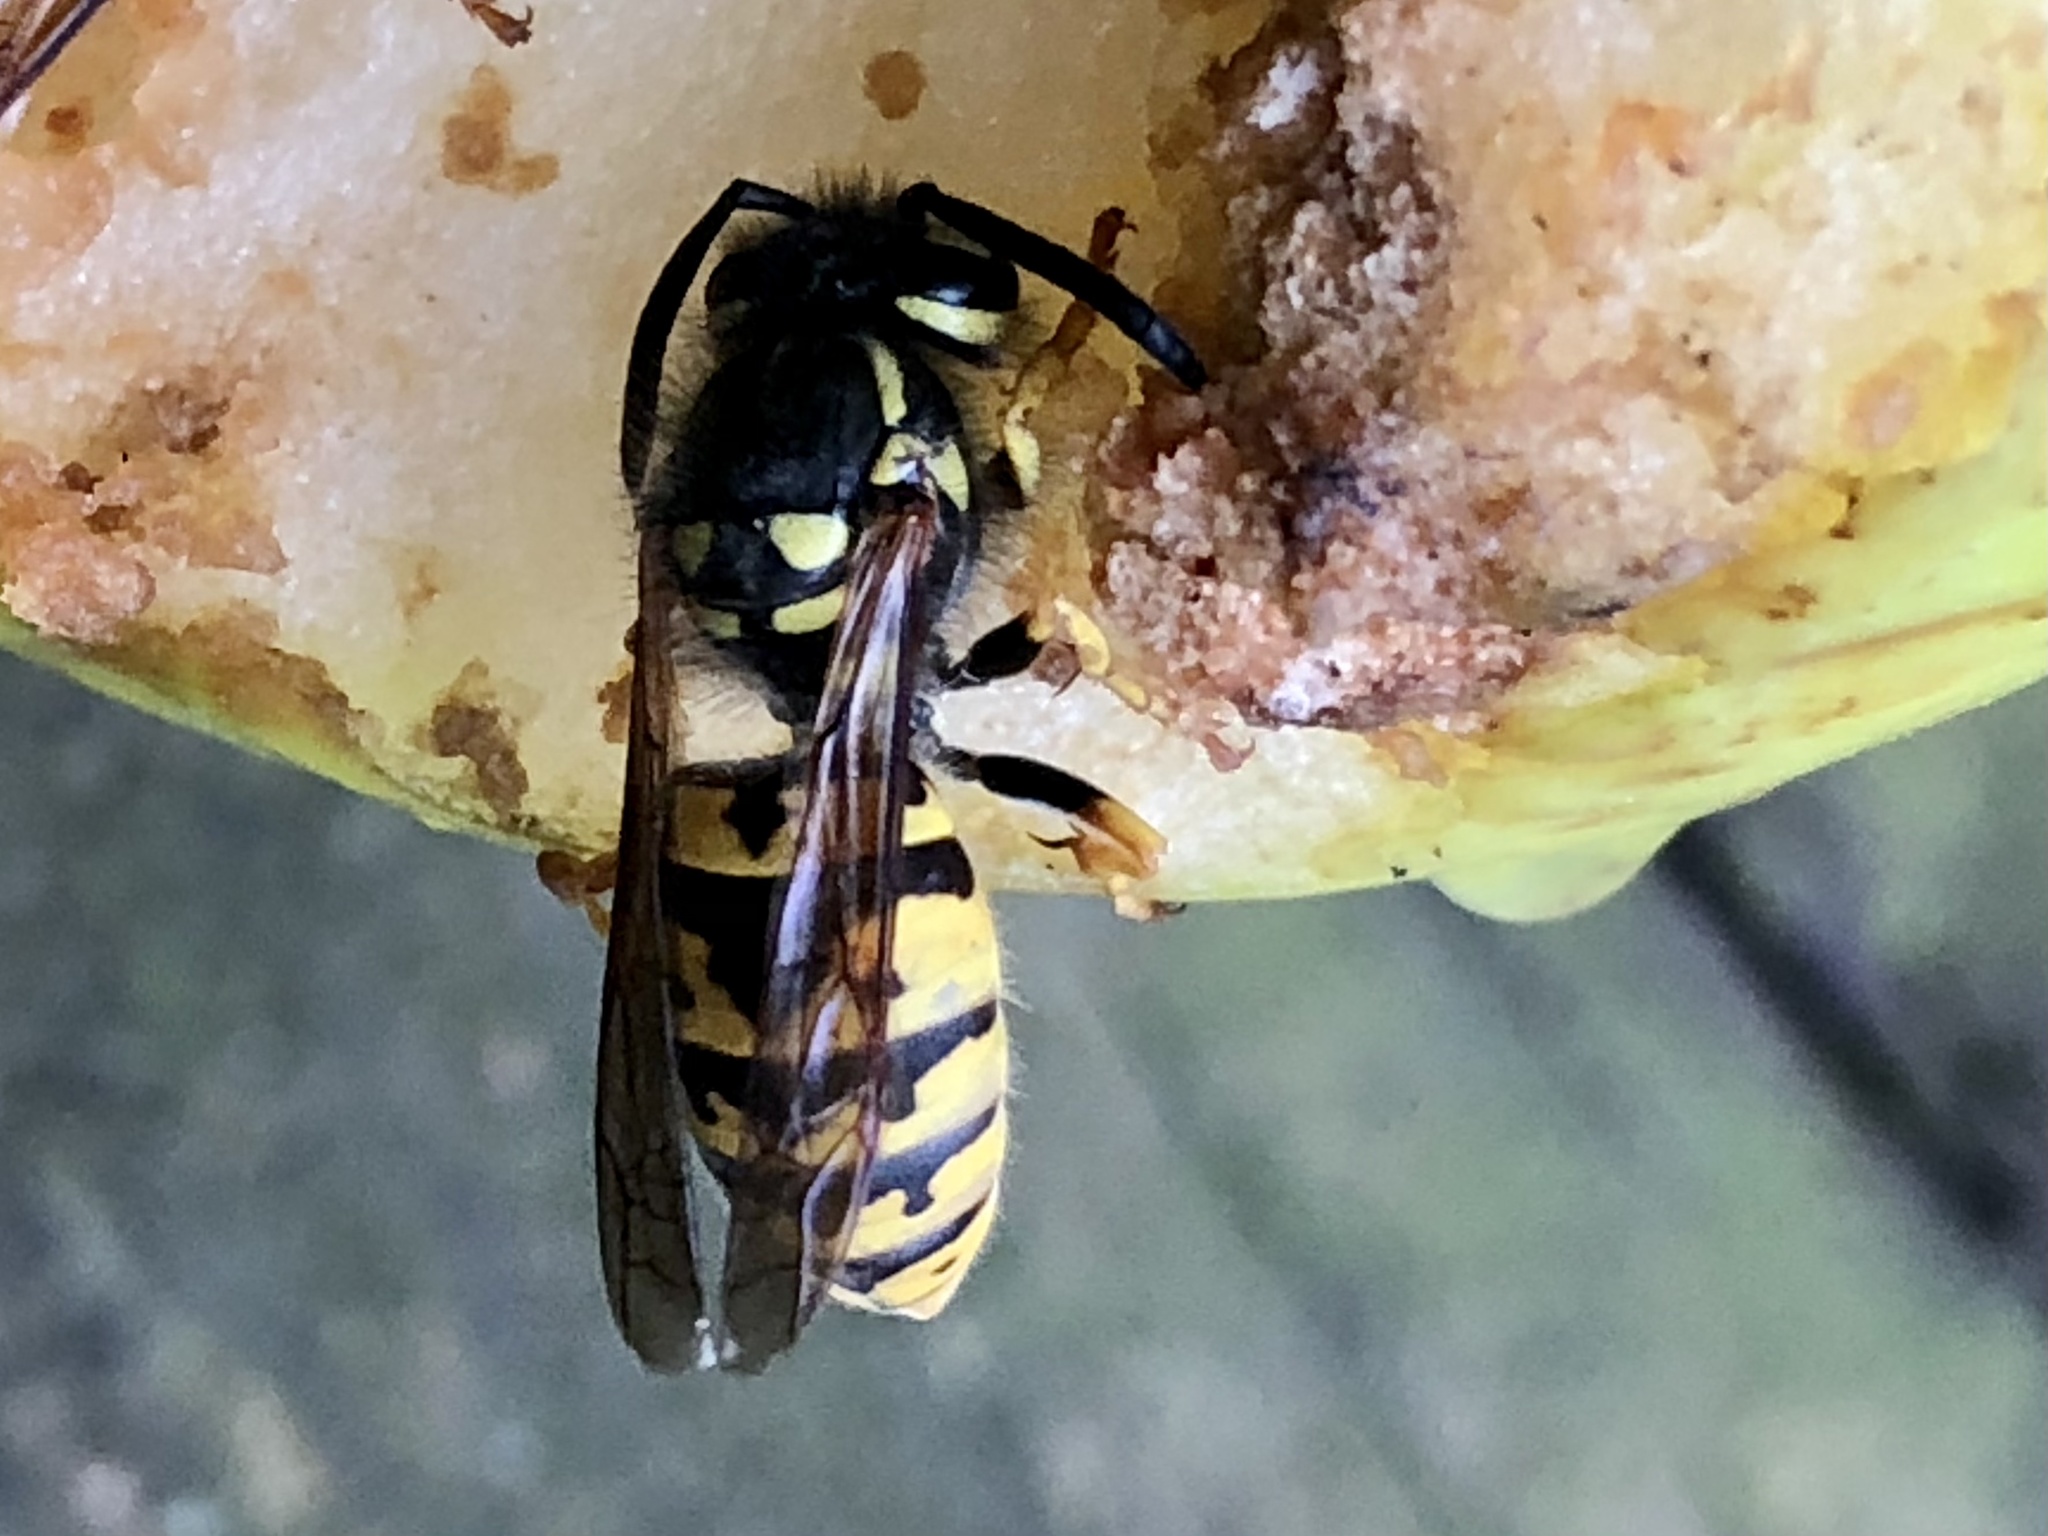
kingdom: Animalia
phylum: Arthropoda
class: Insecta
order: Hymenoptera
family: Vespidae
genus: Vespula
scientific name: Vespula germanica
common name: German wasp
